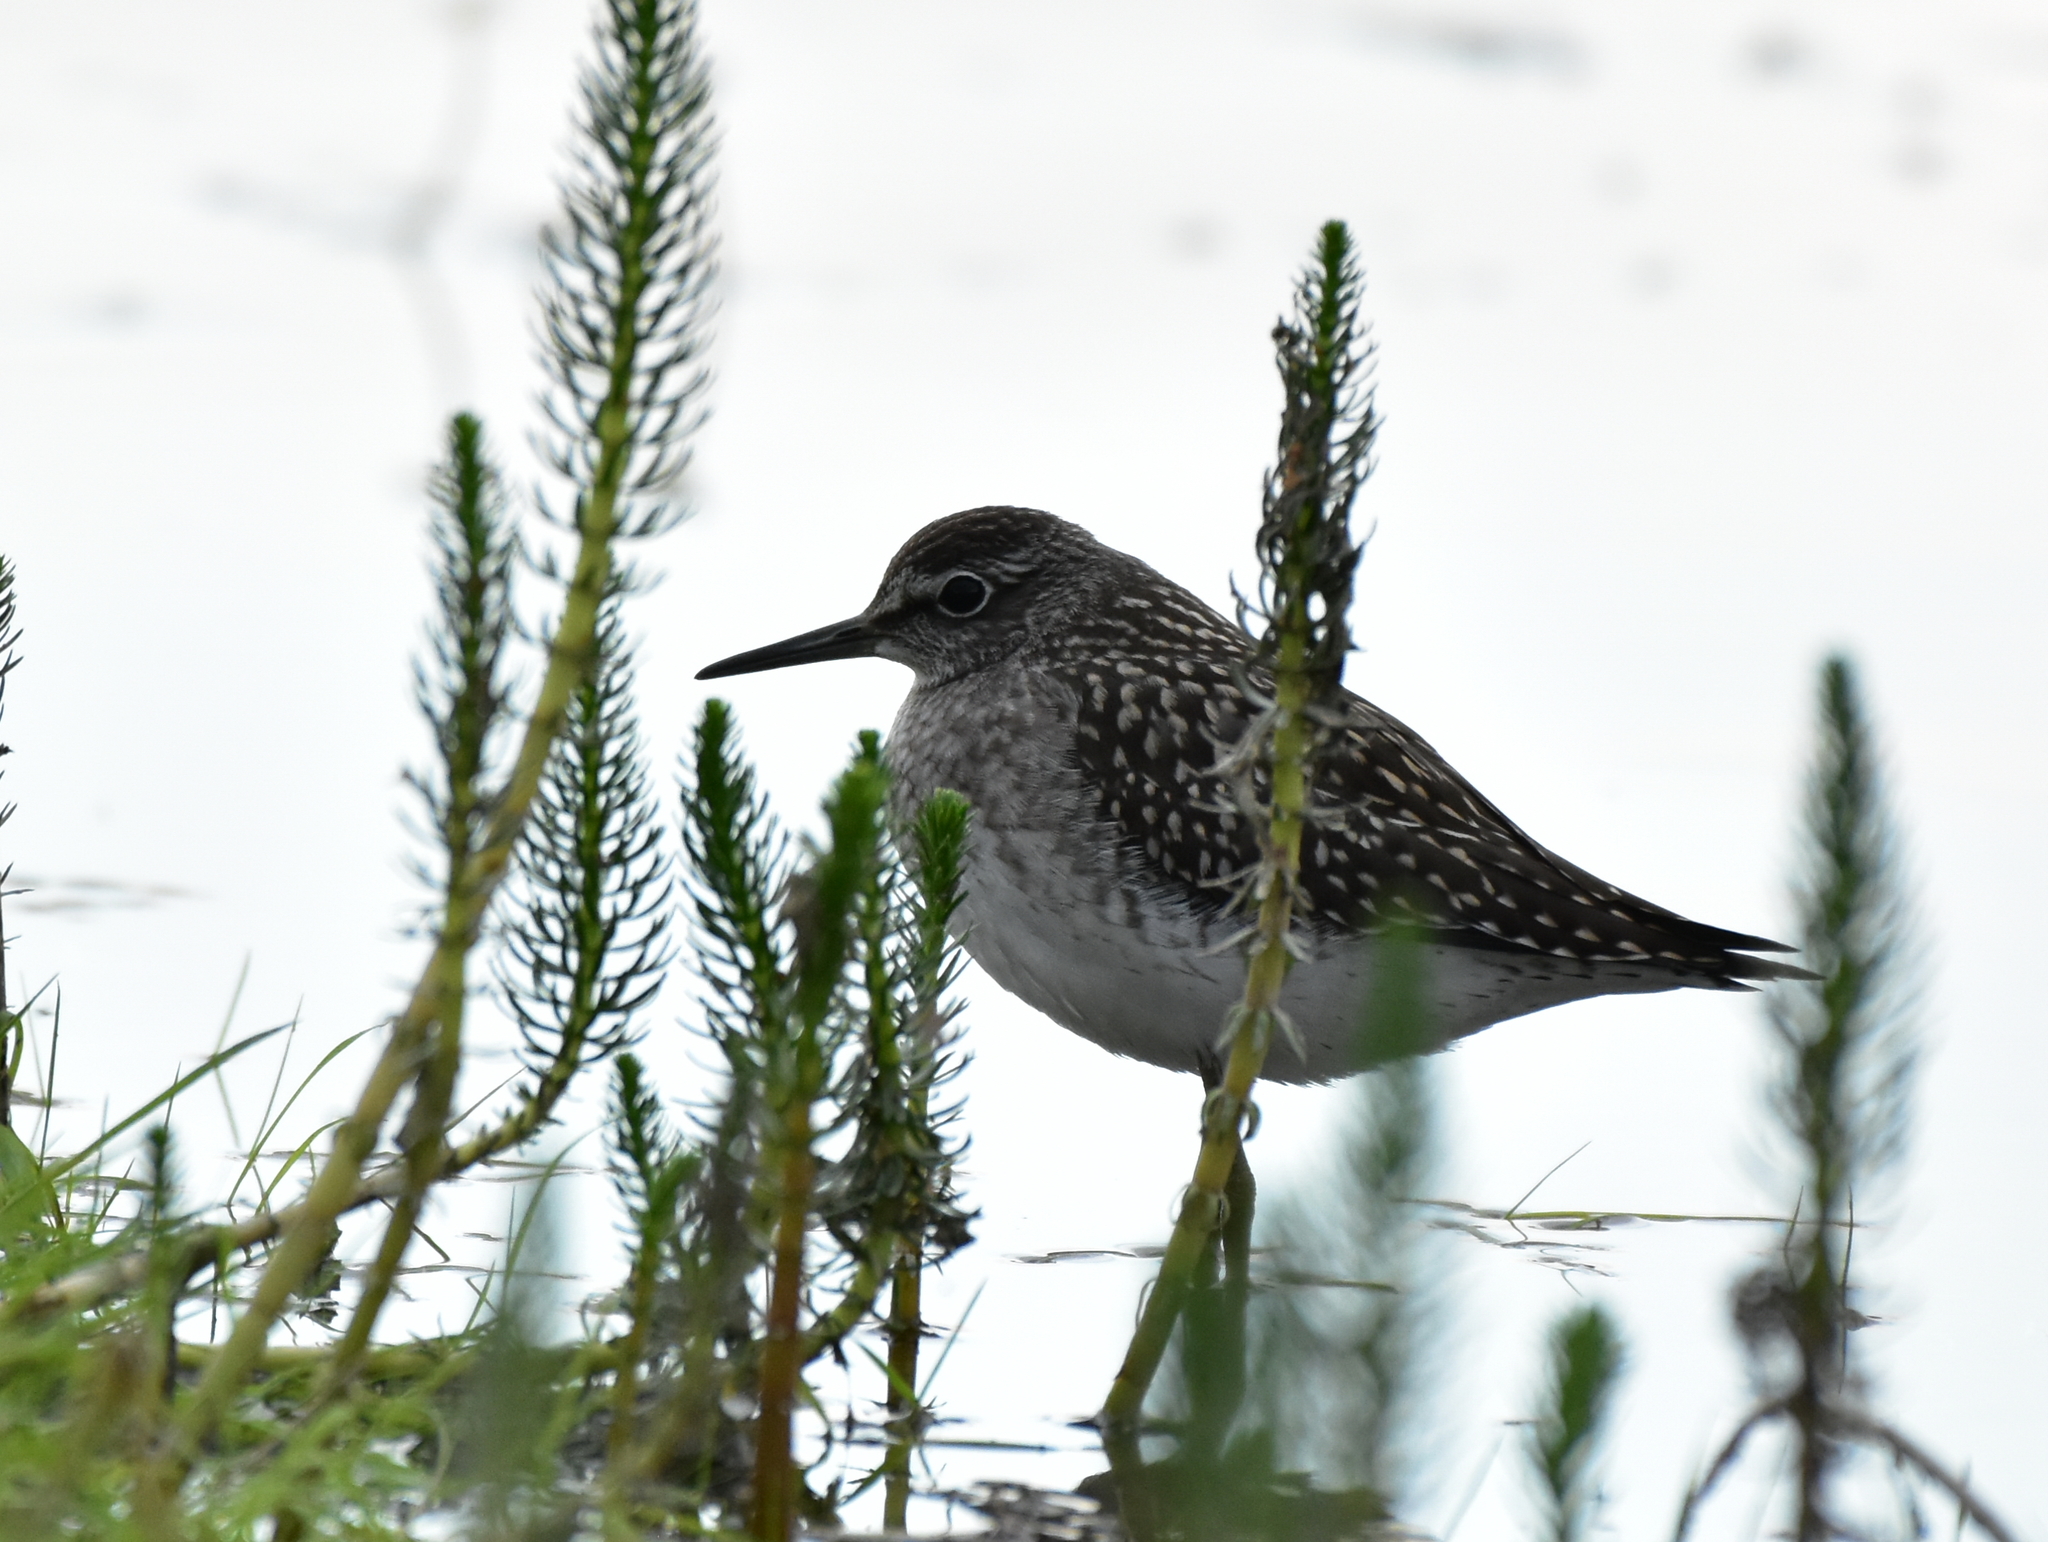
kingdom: Animalia
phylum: Chordata
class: Aves
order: Charadriiformes
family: Scolopacidae
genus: Tringa
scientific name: Tringa glareola
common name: Wood sandpiper
